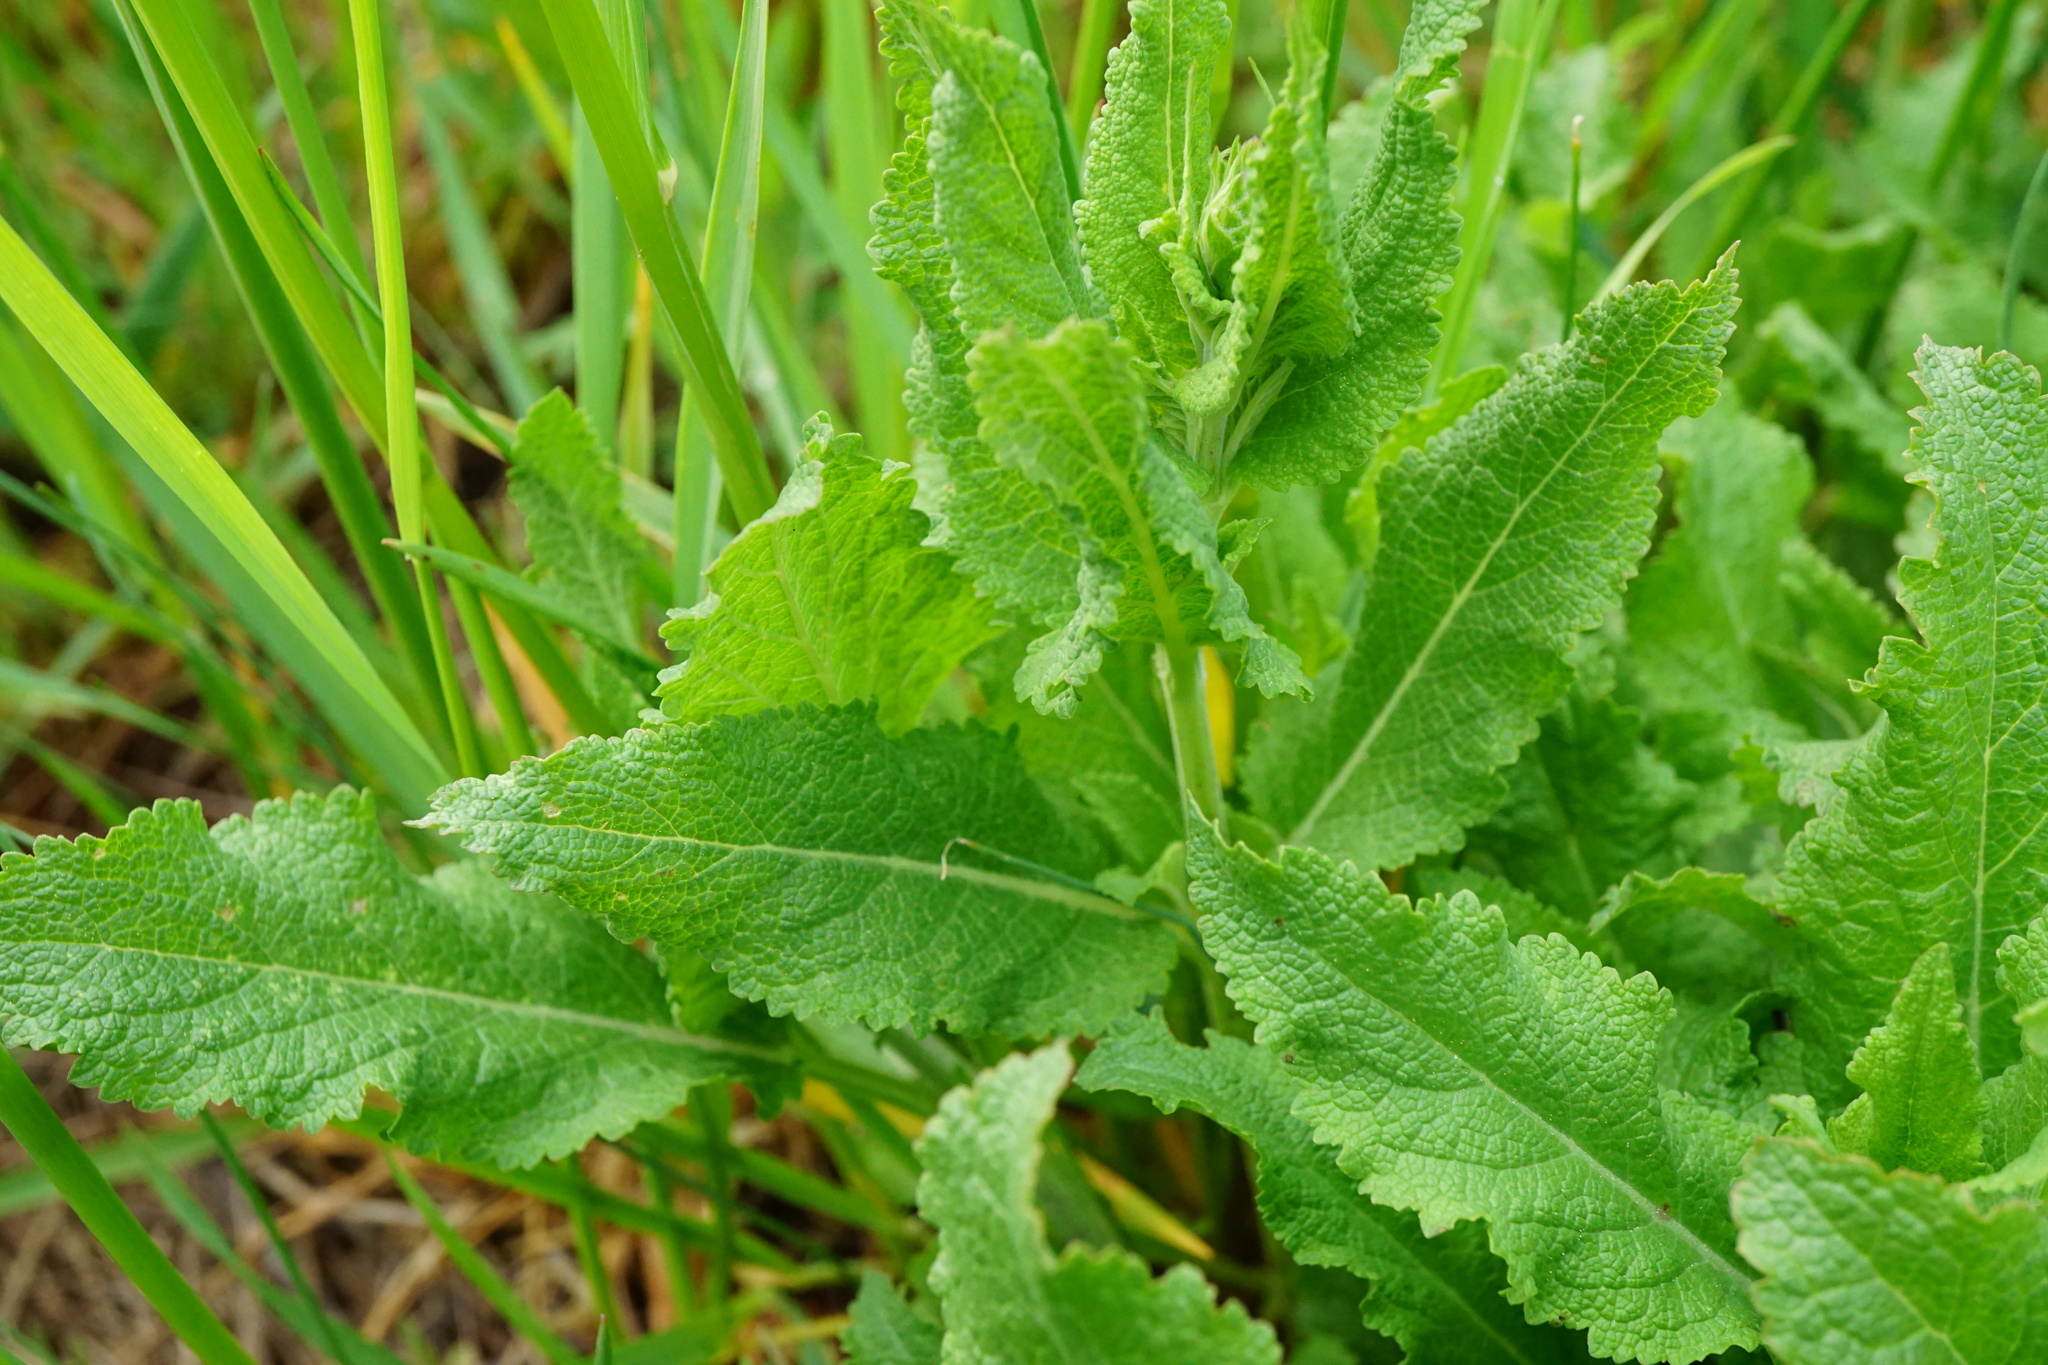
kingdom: Plantae
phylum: Tracheophyta
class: Magnoliopsida
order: Lamiales
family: Lamiaceae
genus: Salvia
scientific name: Salvia nemorosa
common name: Balkan clary
